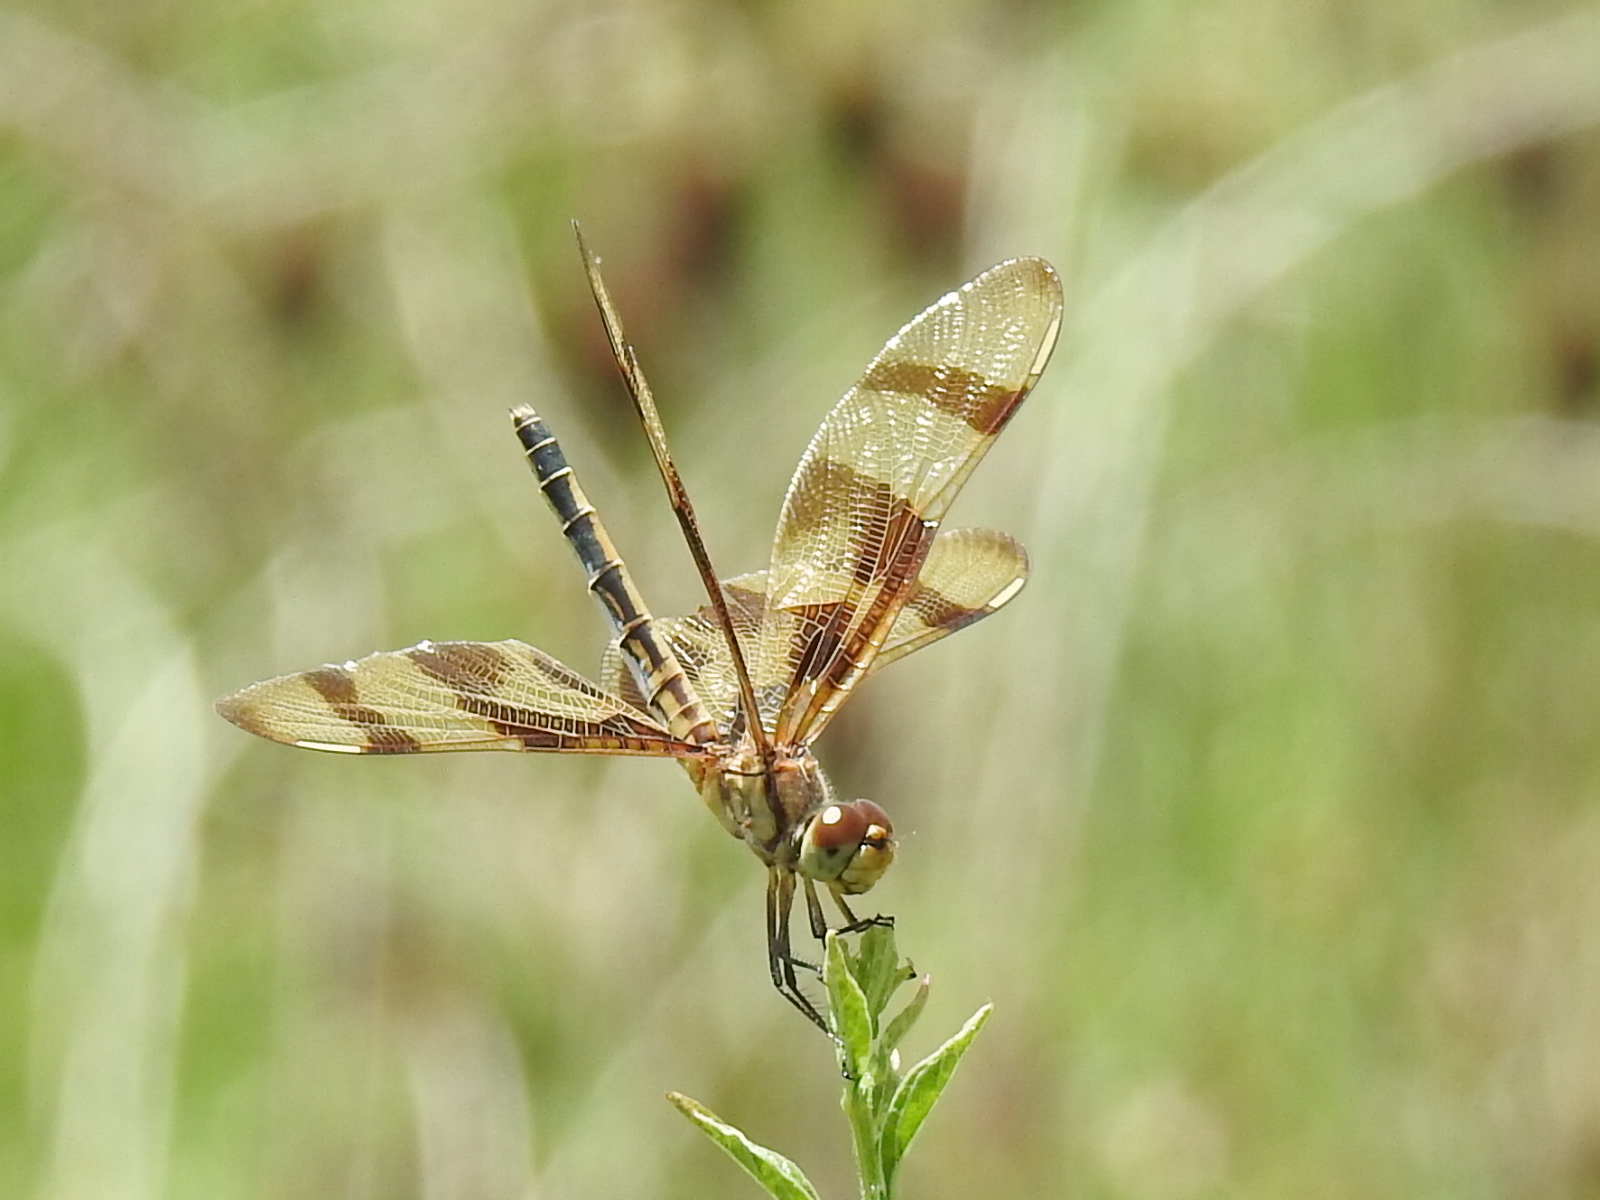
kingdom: Animalia
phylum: Arthropoda
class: Insecta
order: Odonata
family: Libellulidae
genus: Celithemis
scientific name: Celithemis eponina
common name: Halloween pennant
